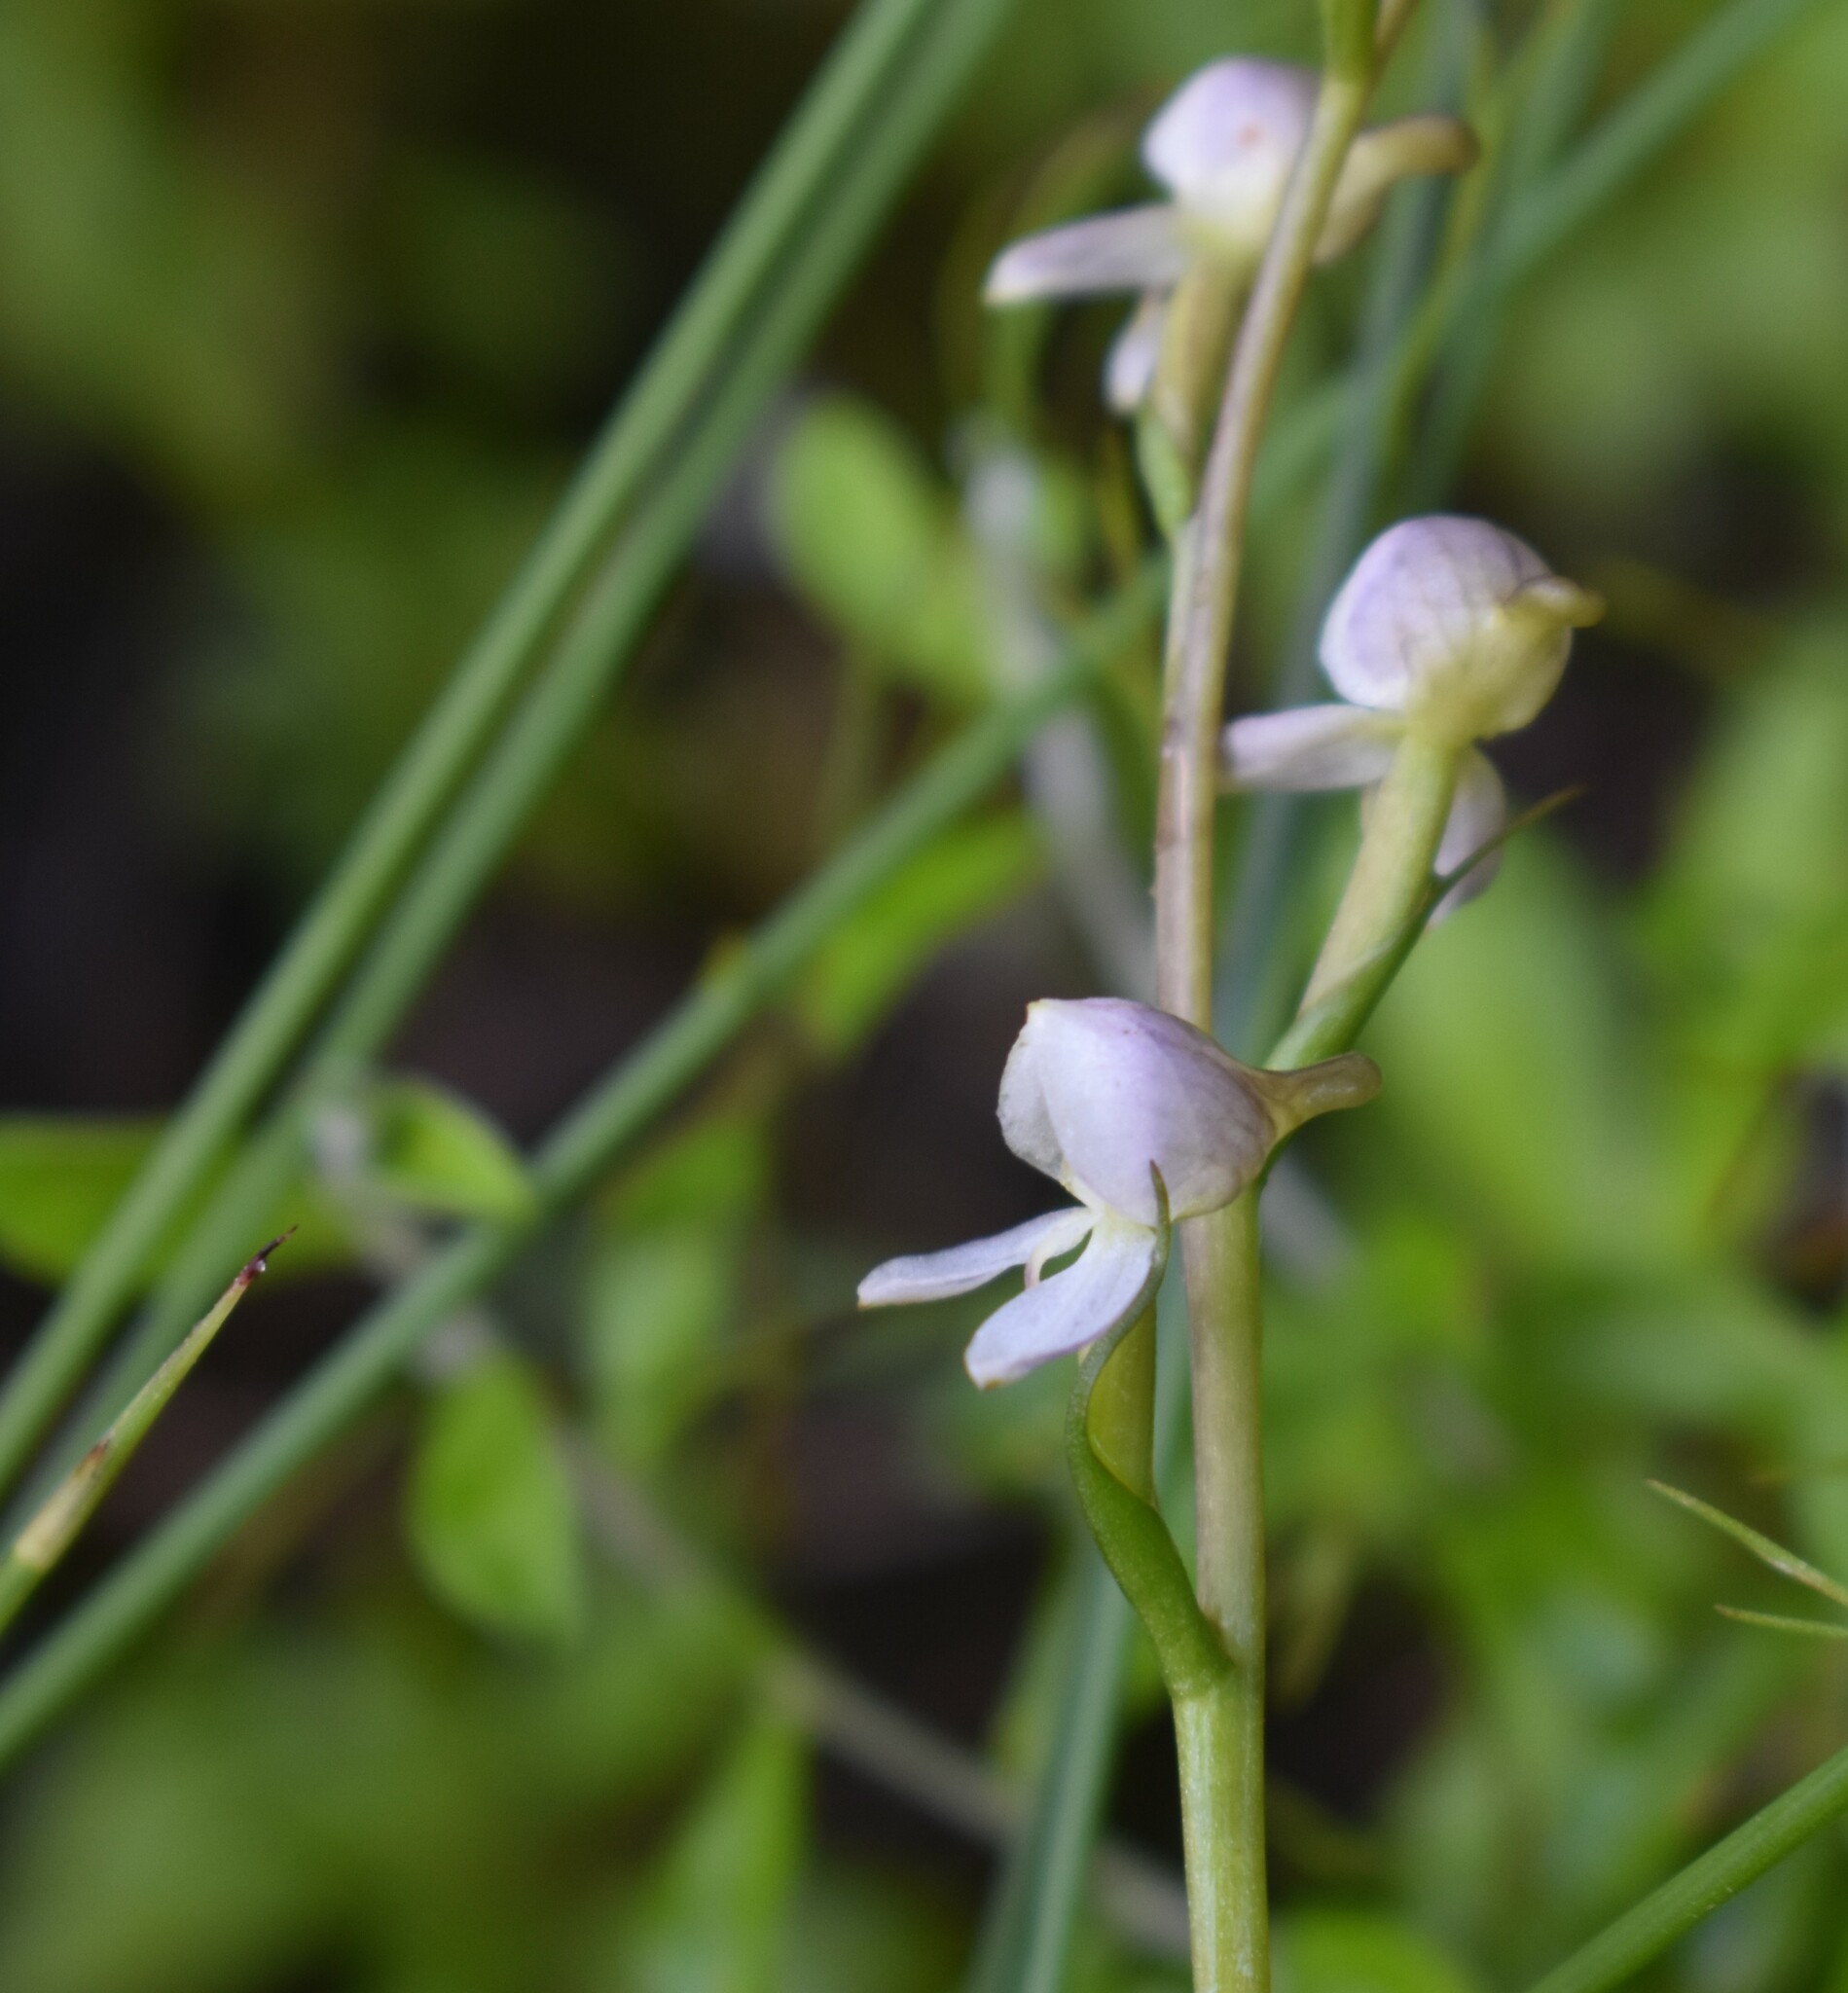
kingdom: Plantae
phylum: Tracheophyta
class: Liliopsida
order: Asparagales
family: Orchidaceae
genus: Disa
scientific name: Disa uncinata
